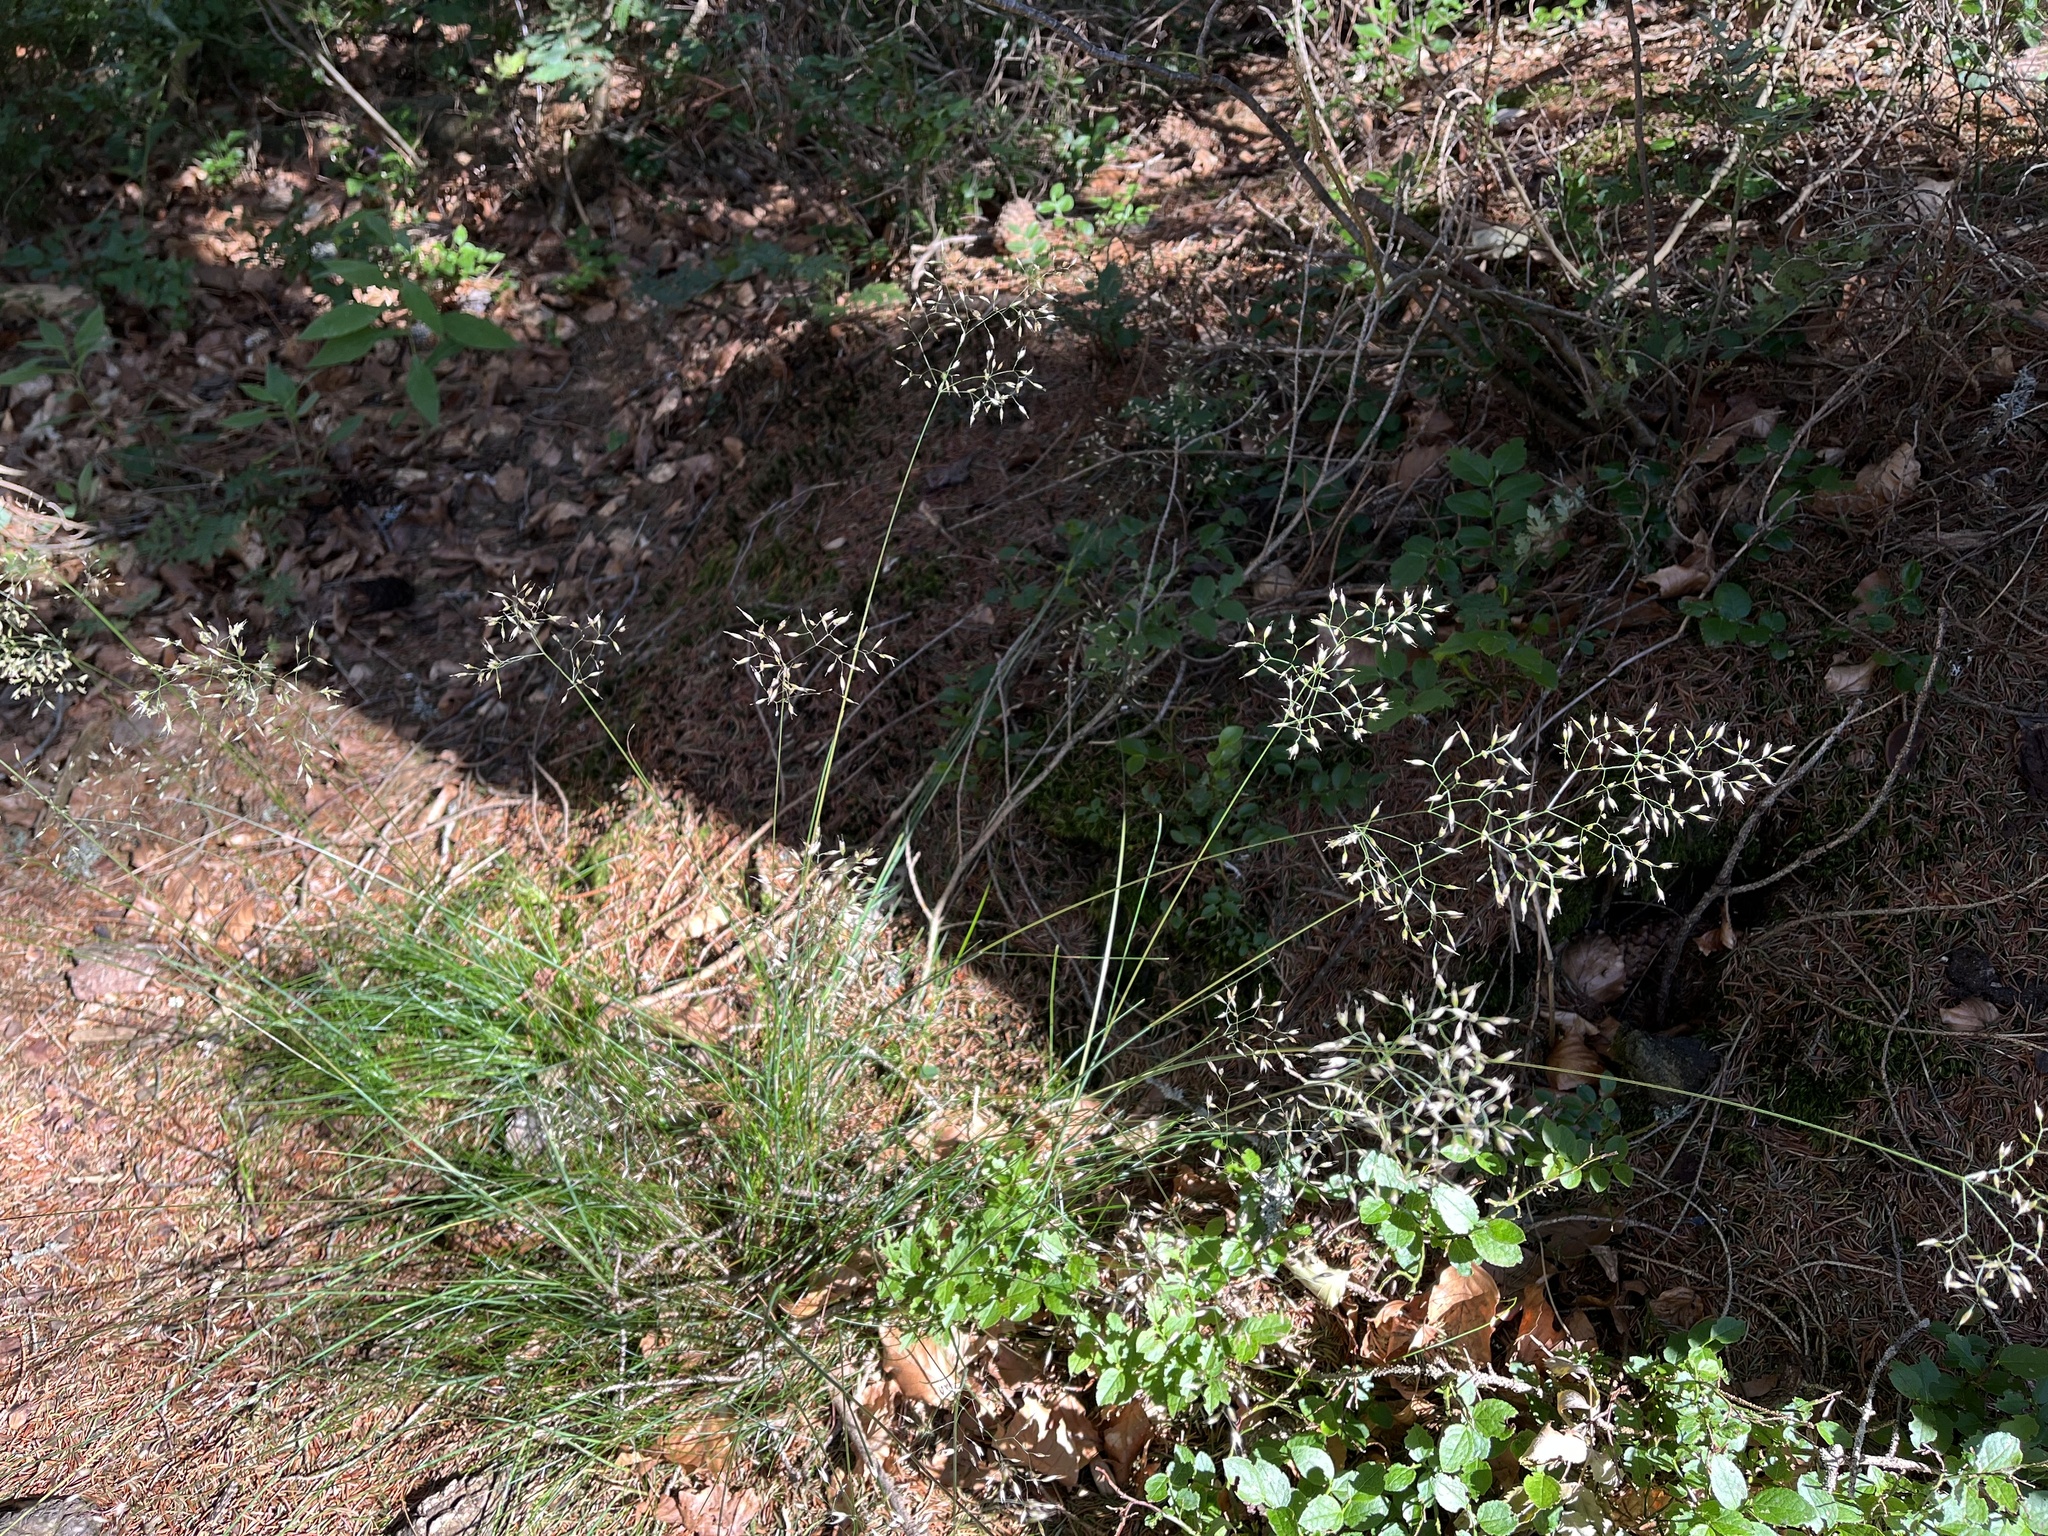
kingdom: Plantae
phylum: Tracheophyta
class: Liliopsida
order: Poales
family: Poaceae
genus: Avenella
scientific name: Avenella flexuosa
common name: Wavy hairgrass
